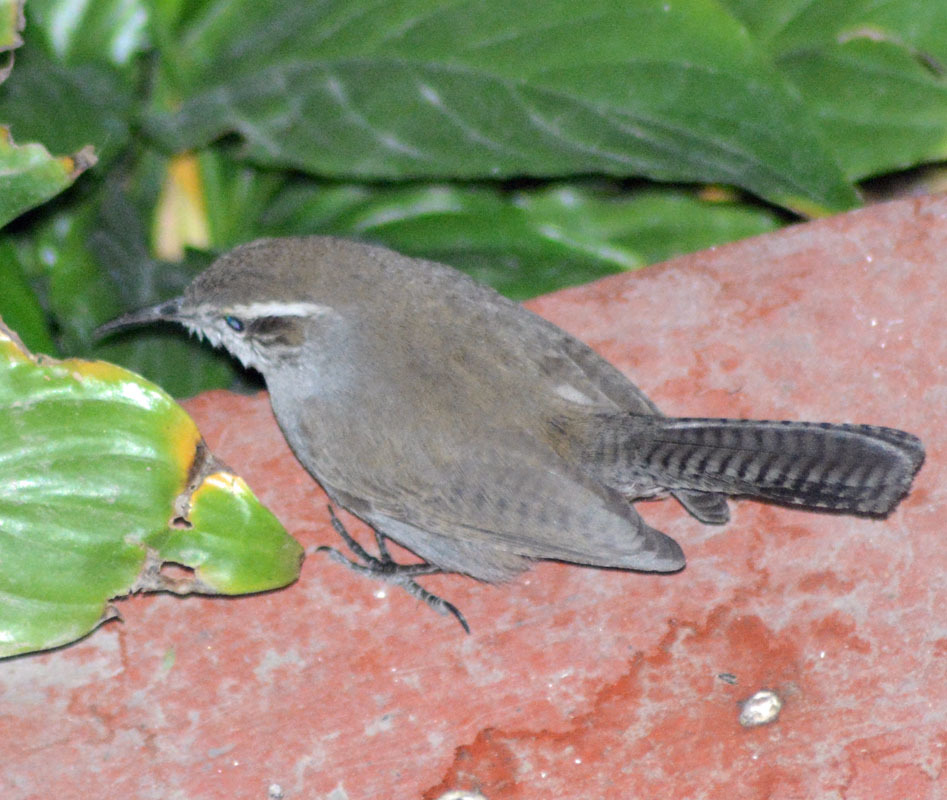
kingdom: Animalia
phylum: Chordata
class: Aves
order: Passeriformes
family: Troglodytidae
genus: Thryomanes
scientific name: Thryomanes bewickii
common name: Bewick's wren
